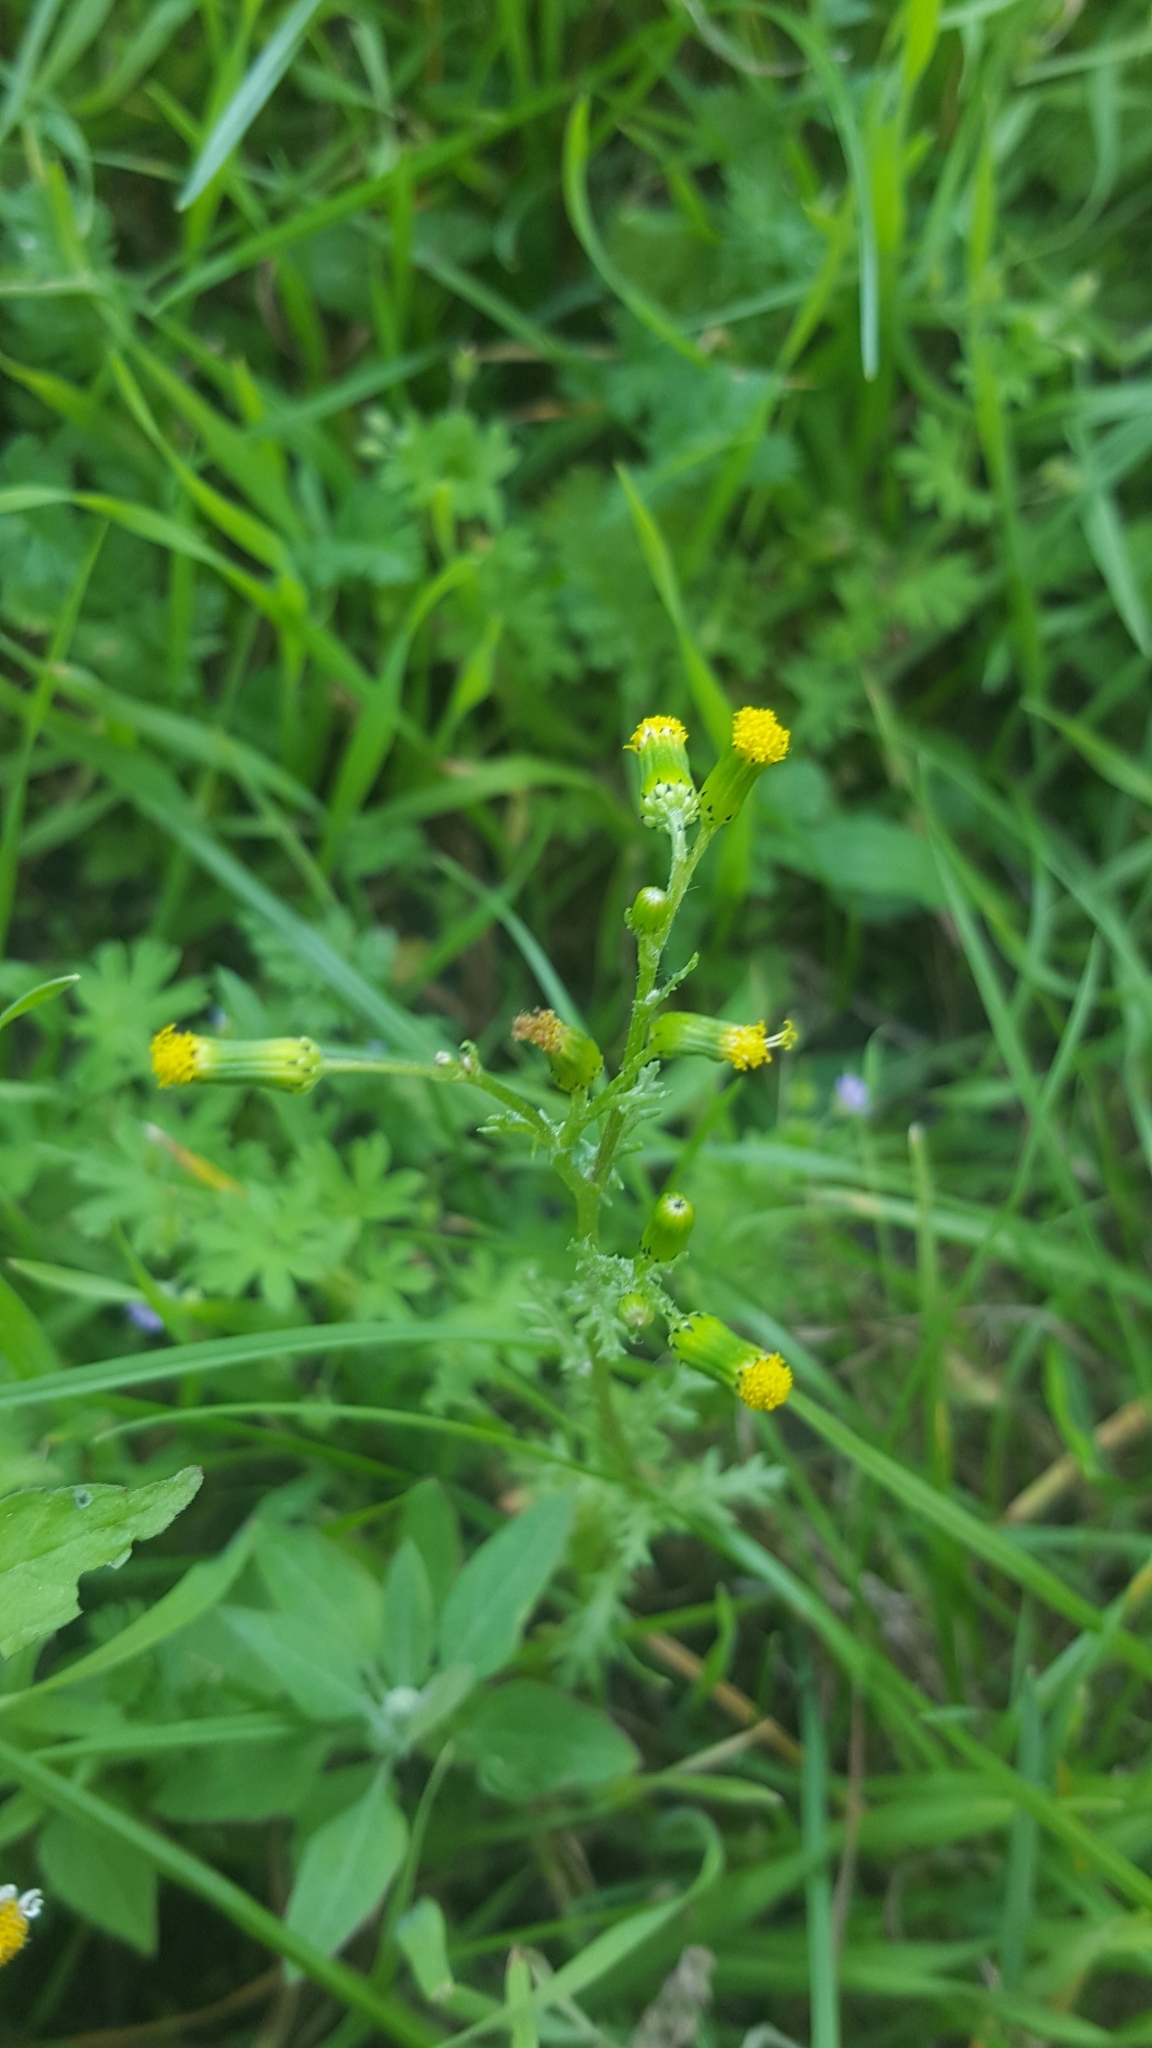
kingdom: Plantae
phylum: Tracheophyta
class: Magnoliopsida
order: Asterales
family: Asteraceae
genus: Senecio
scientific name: Senecio vulgaris
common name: Old-man-in-the-spring
